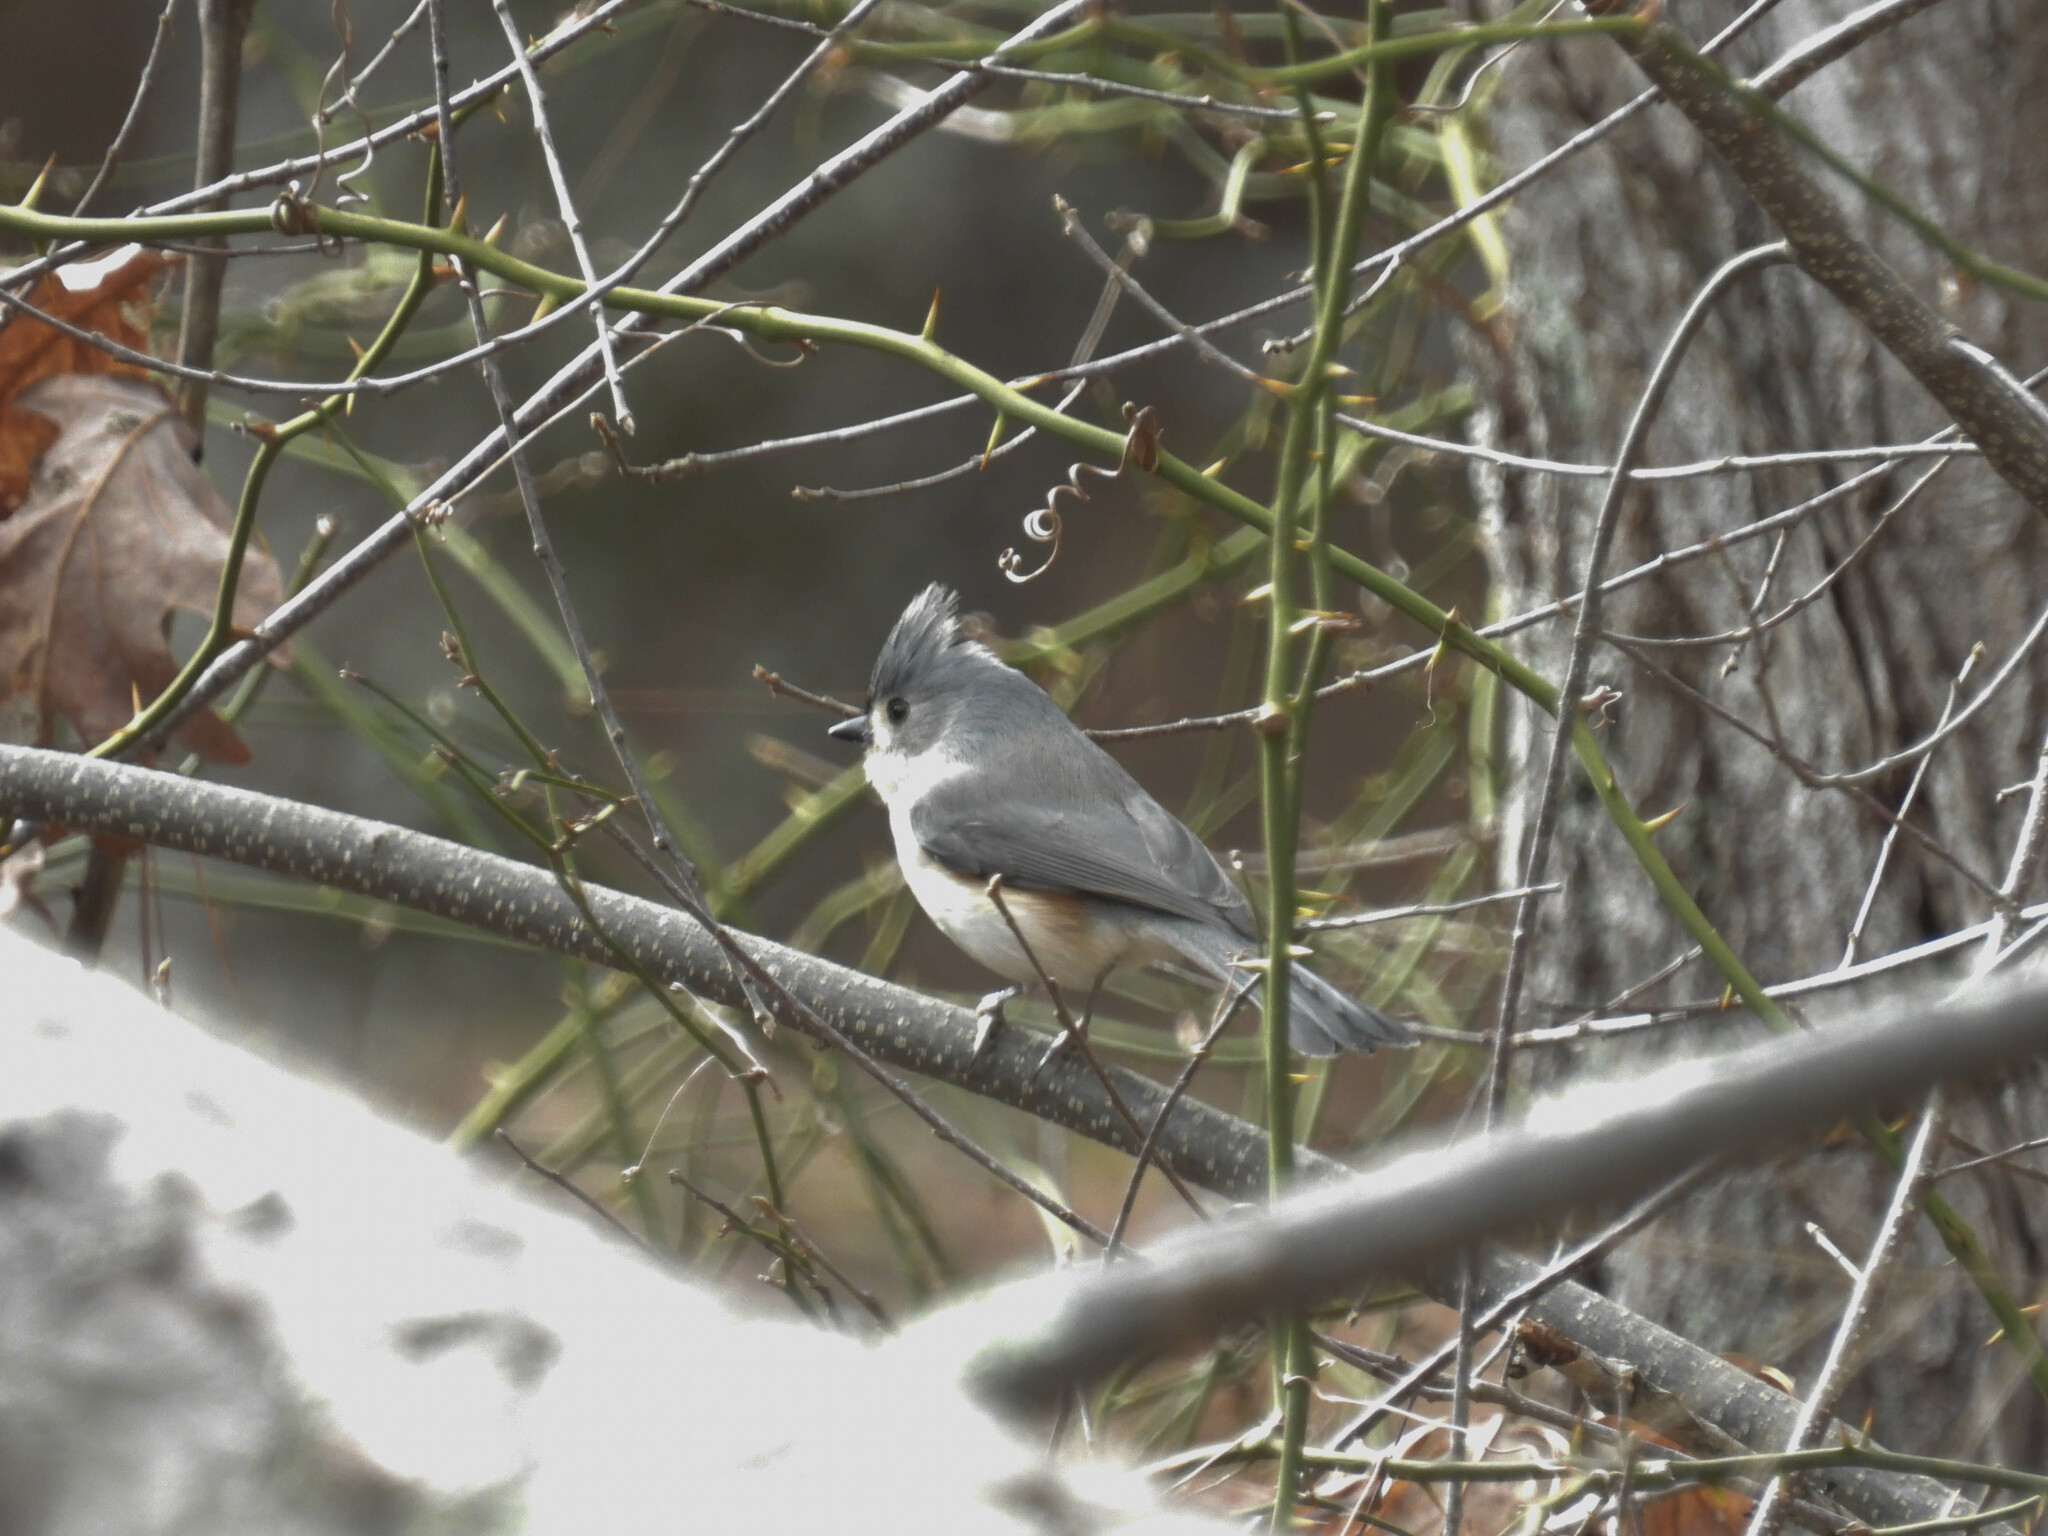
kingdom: Animalia
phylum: Chordata
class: Aves
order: Passeriformes
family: Paridae
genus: Baeolophus
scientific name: Baeolophus bicolor
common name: Tufted titmouse
